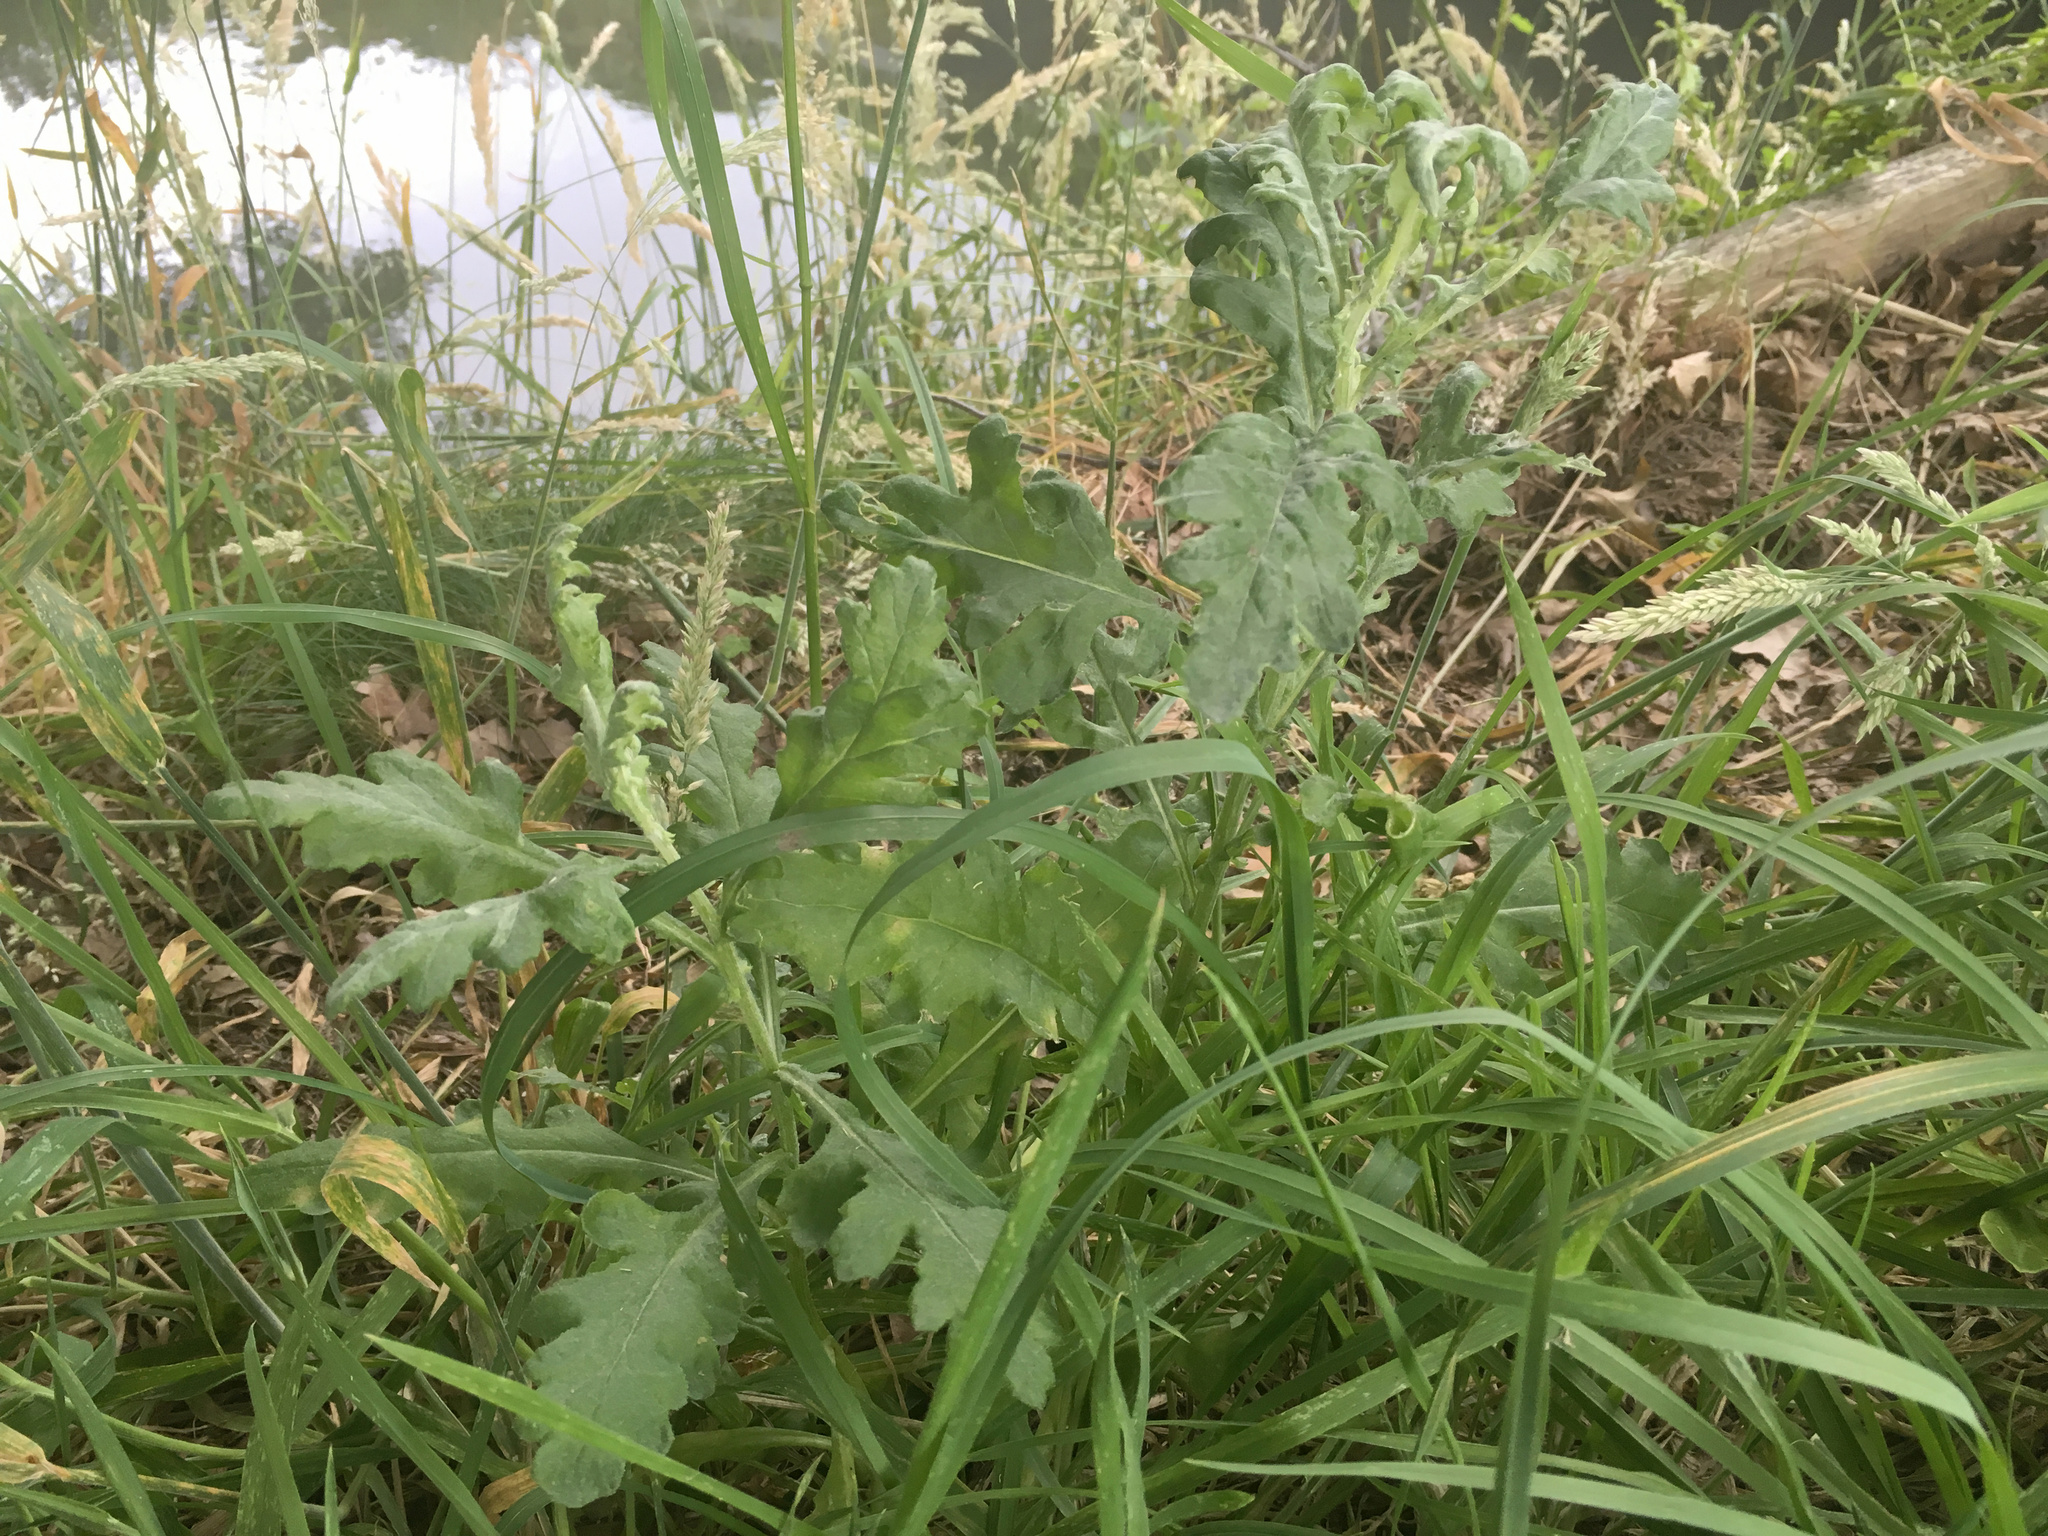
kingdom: Plantae
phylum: Tracheophyta
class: Magnoliopsida
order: Asterales
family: Asteraceae
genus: Senecio
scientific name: Senecio glomeratus
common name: Cutleaf burnweed
